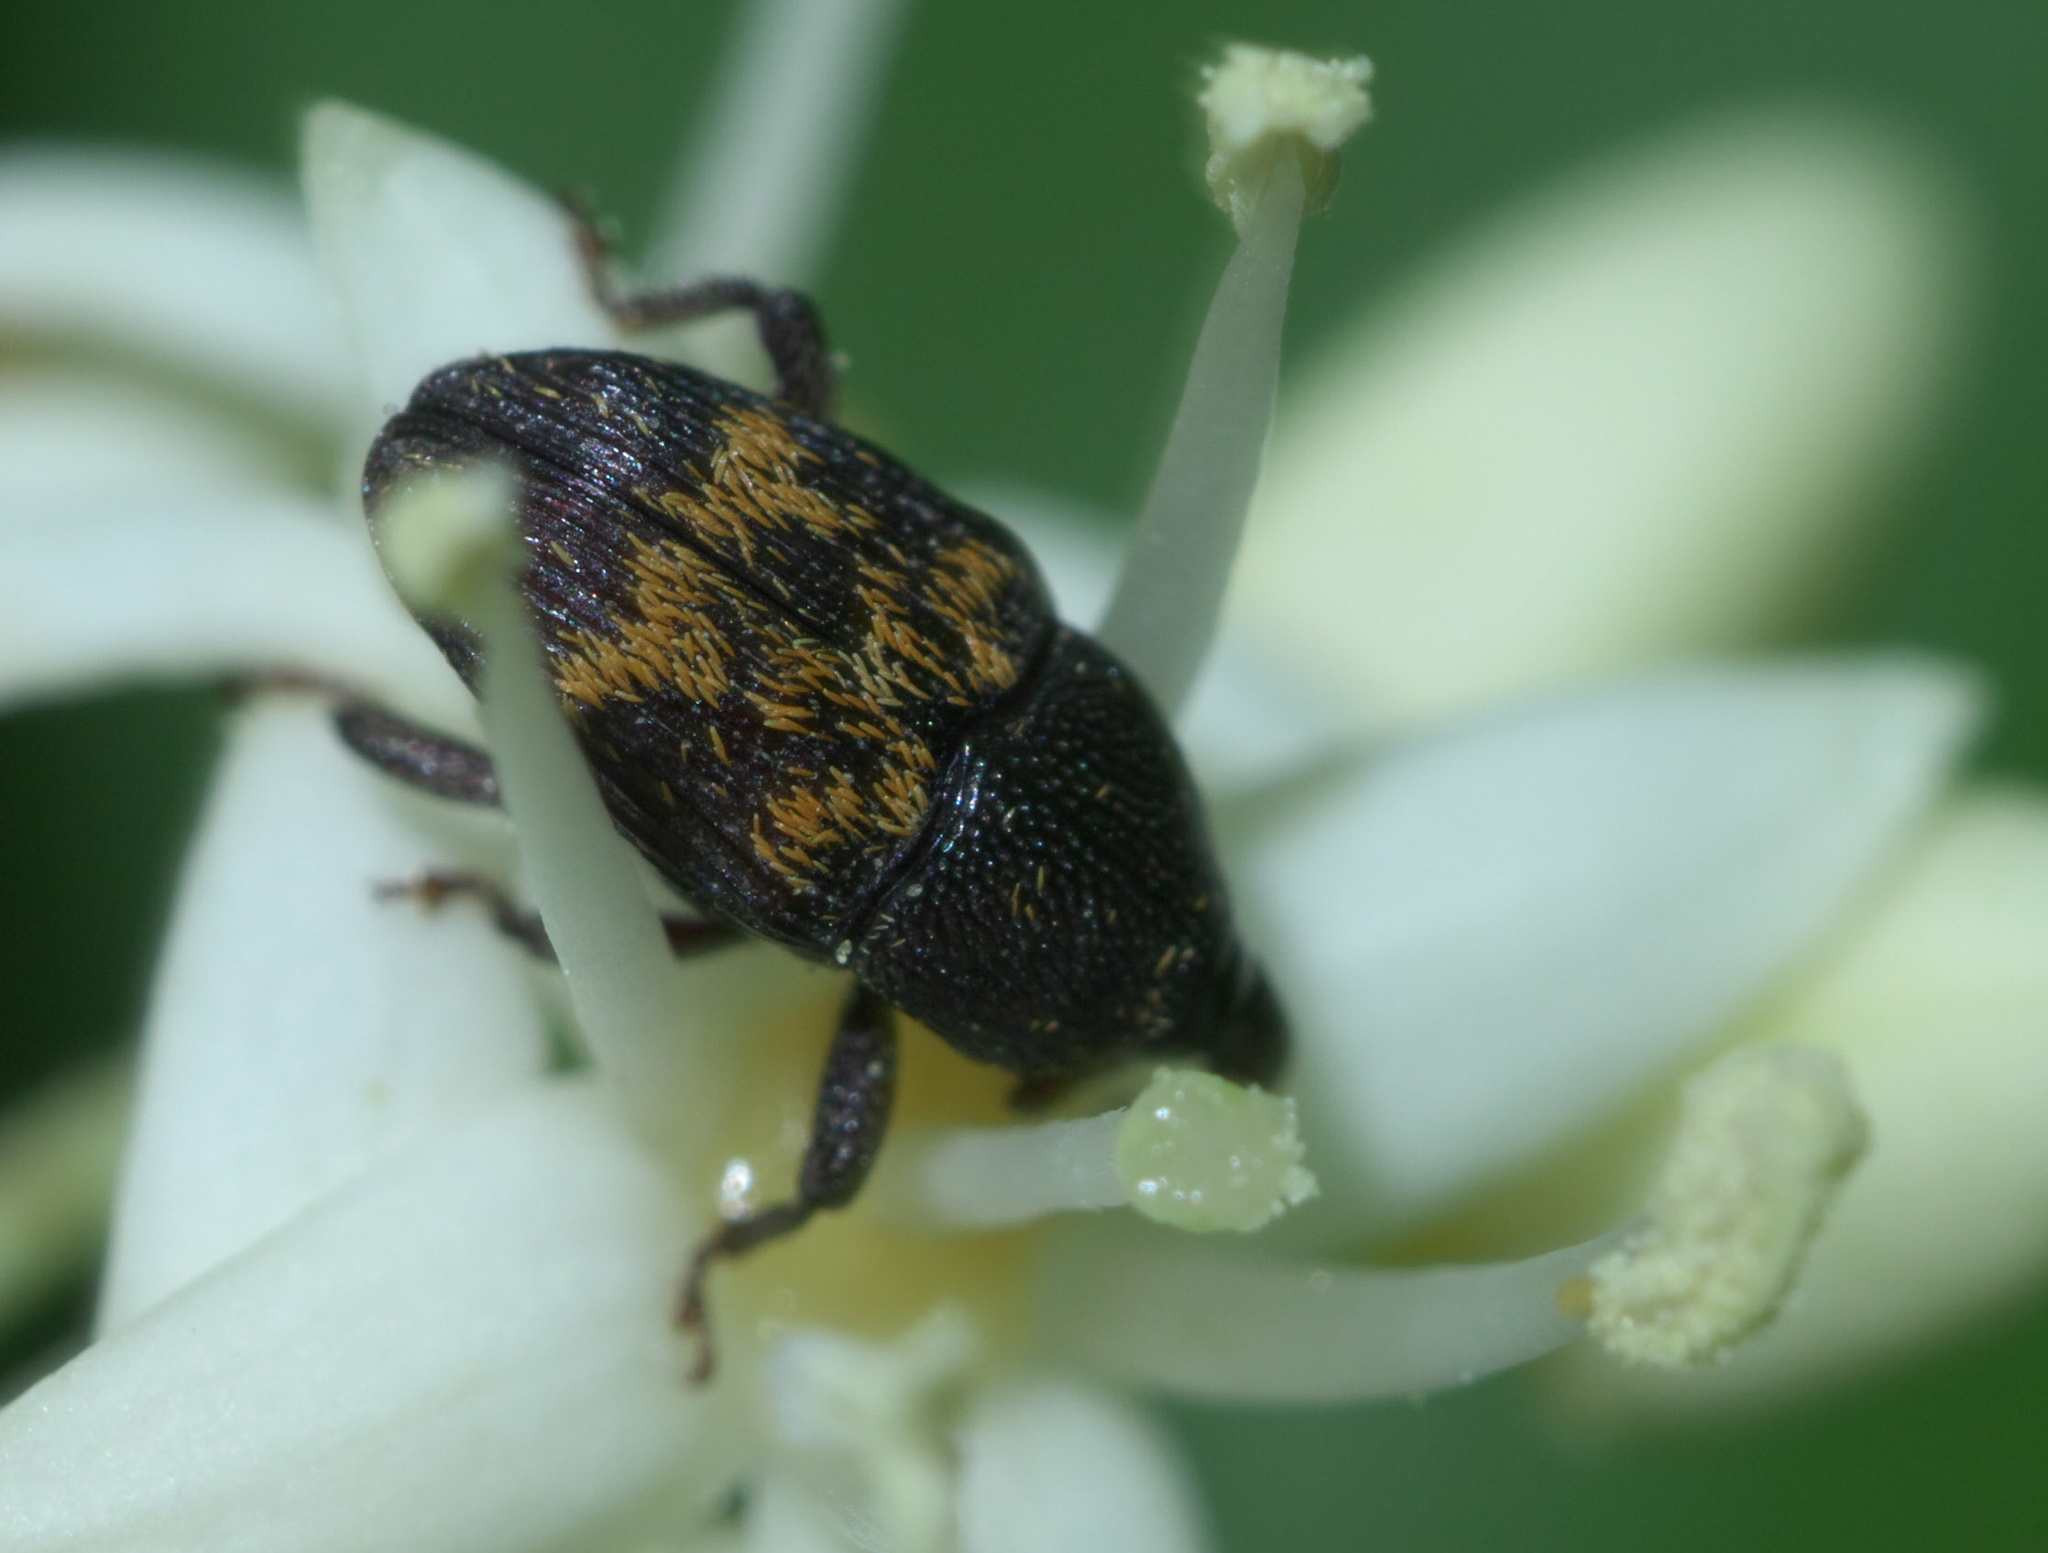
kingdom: Animalia
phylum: Arthropoda
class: Insecta
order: Coleoptera
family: Curculionidae
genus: Glyptobaris
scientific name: Glyptobaris lecontei
